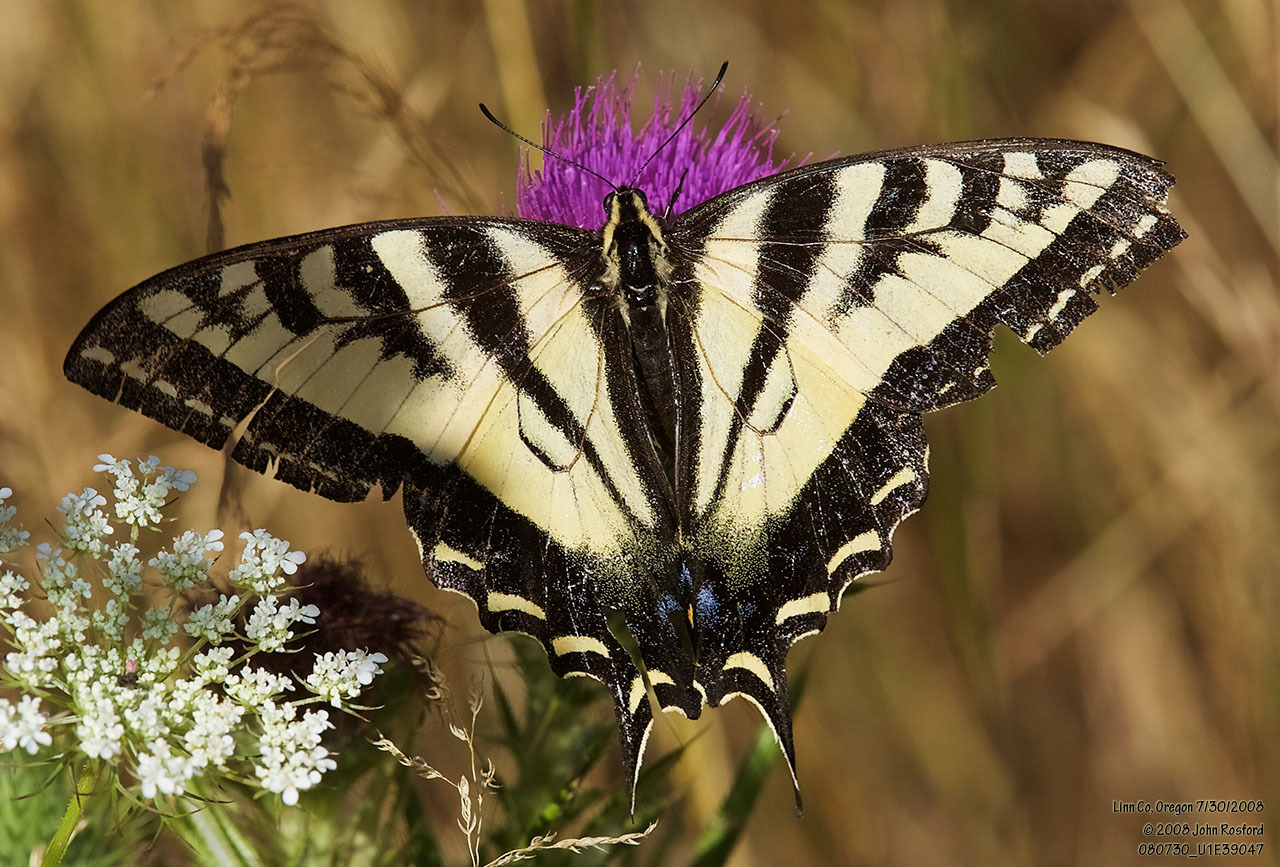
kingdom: Animalia
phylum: Arthropoda
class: Insecta
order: Lepidoptera
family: Papilionidae
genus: Papilio
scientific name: Papilio rutulus
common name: Western tiger swallowtail
